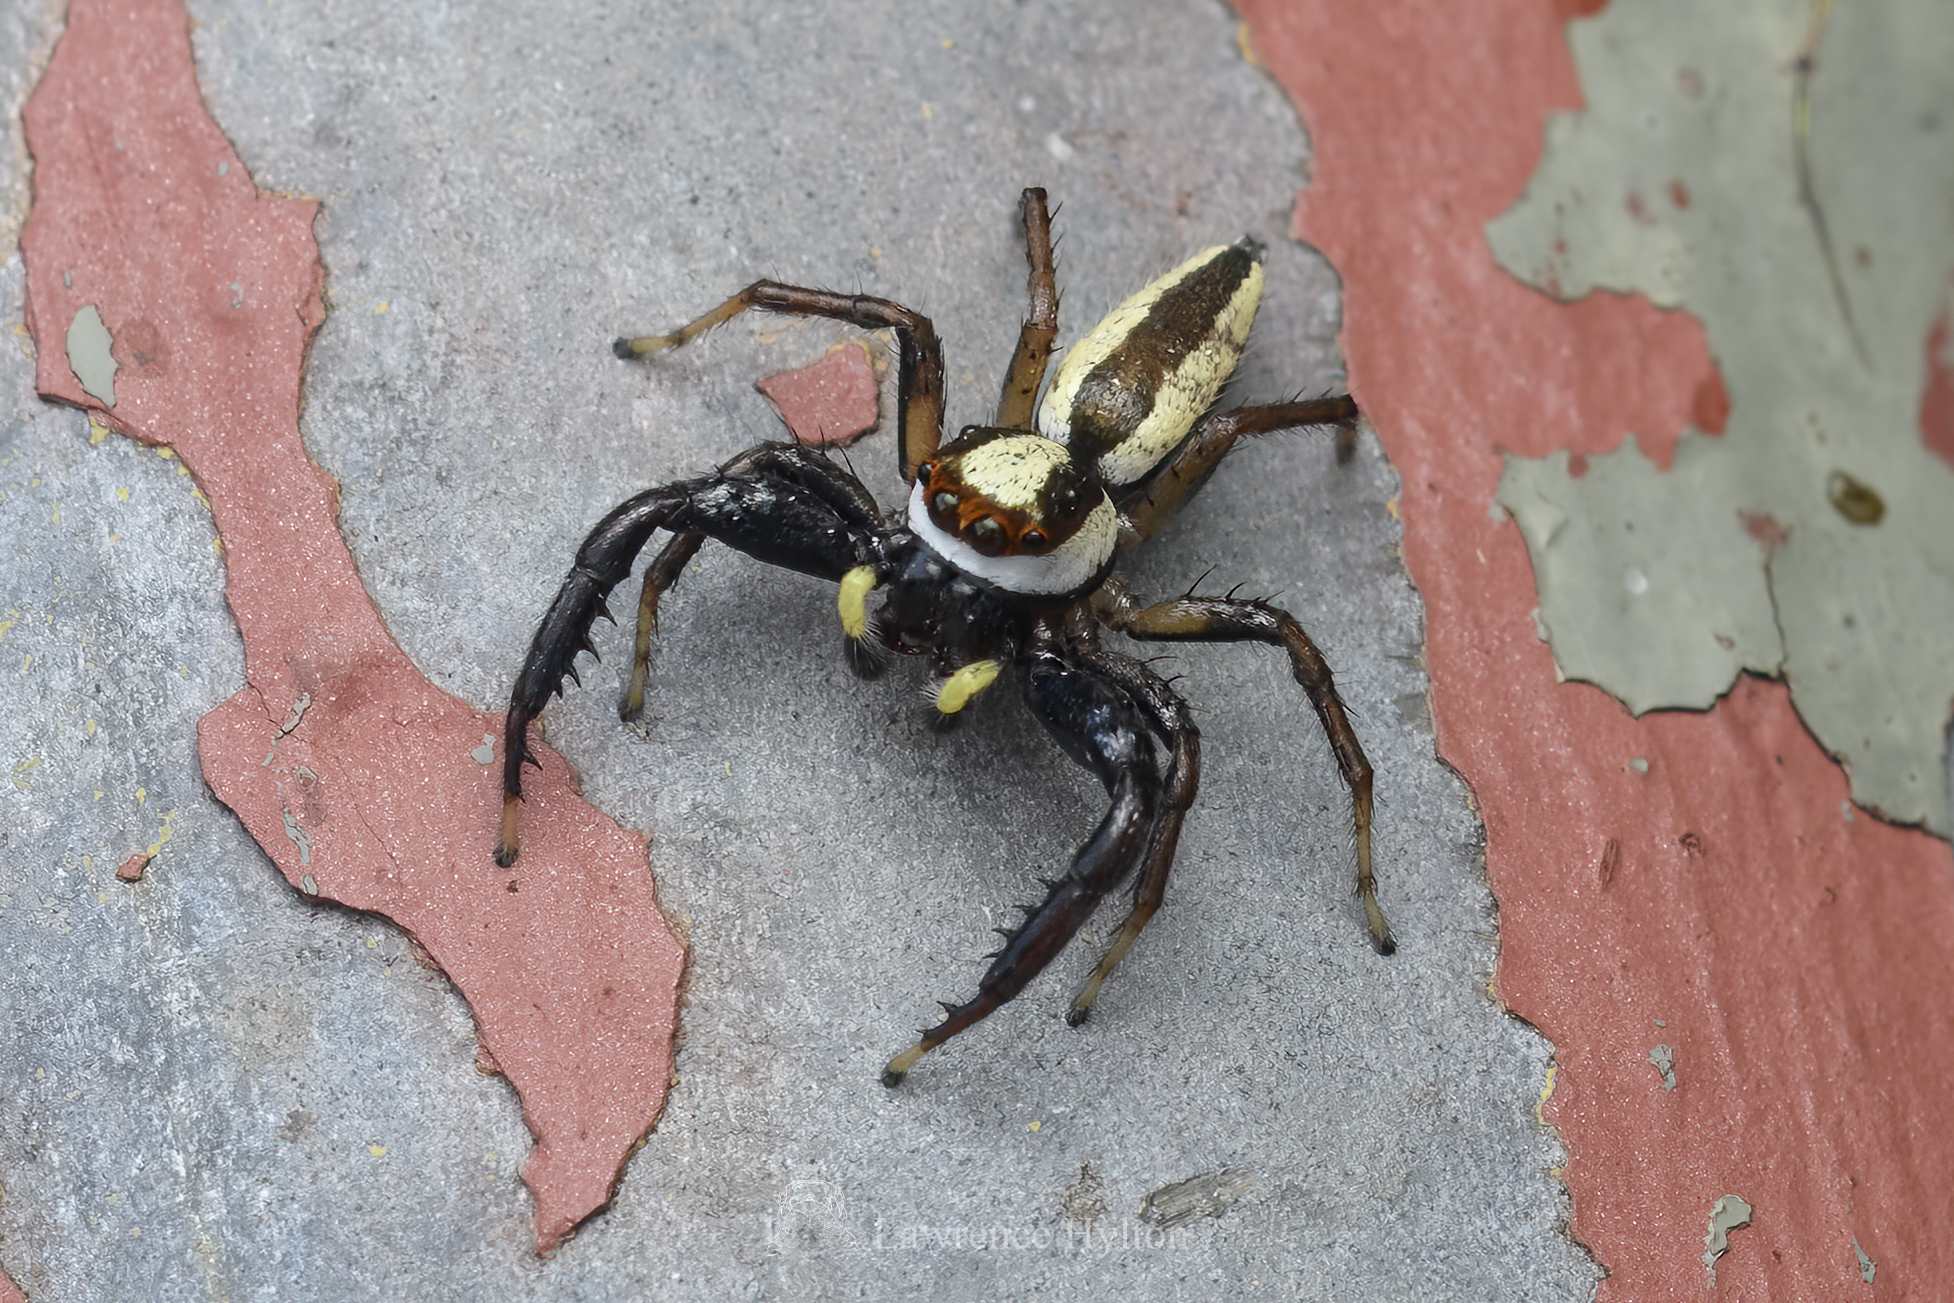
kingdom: Animalia
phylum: Arthropoda
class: Arachnida
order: Araneae
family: Salticidae
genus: Epocilla
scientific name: Epocilla blairei
